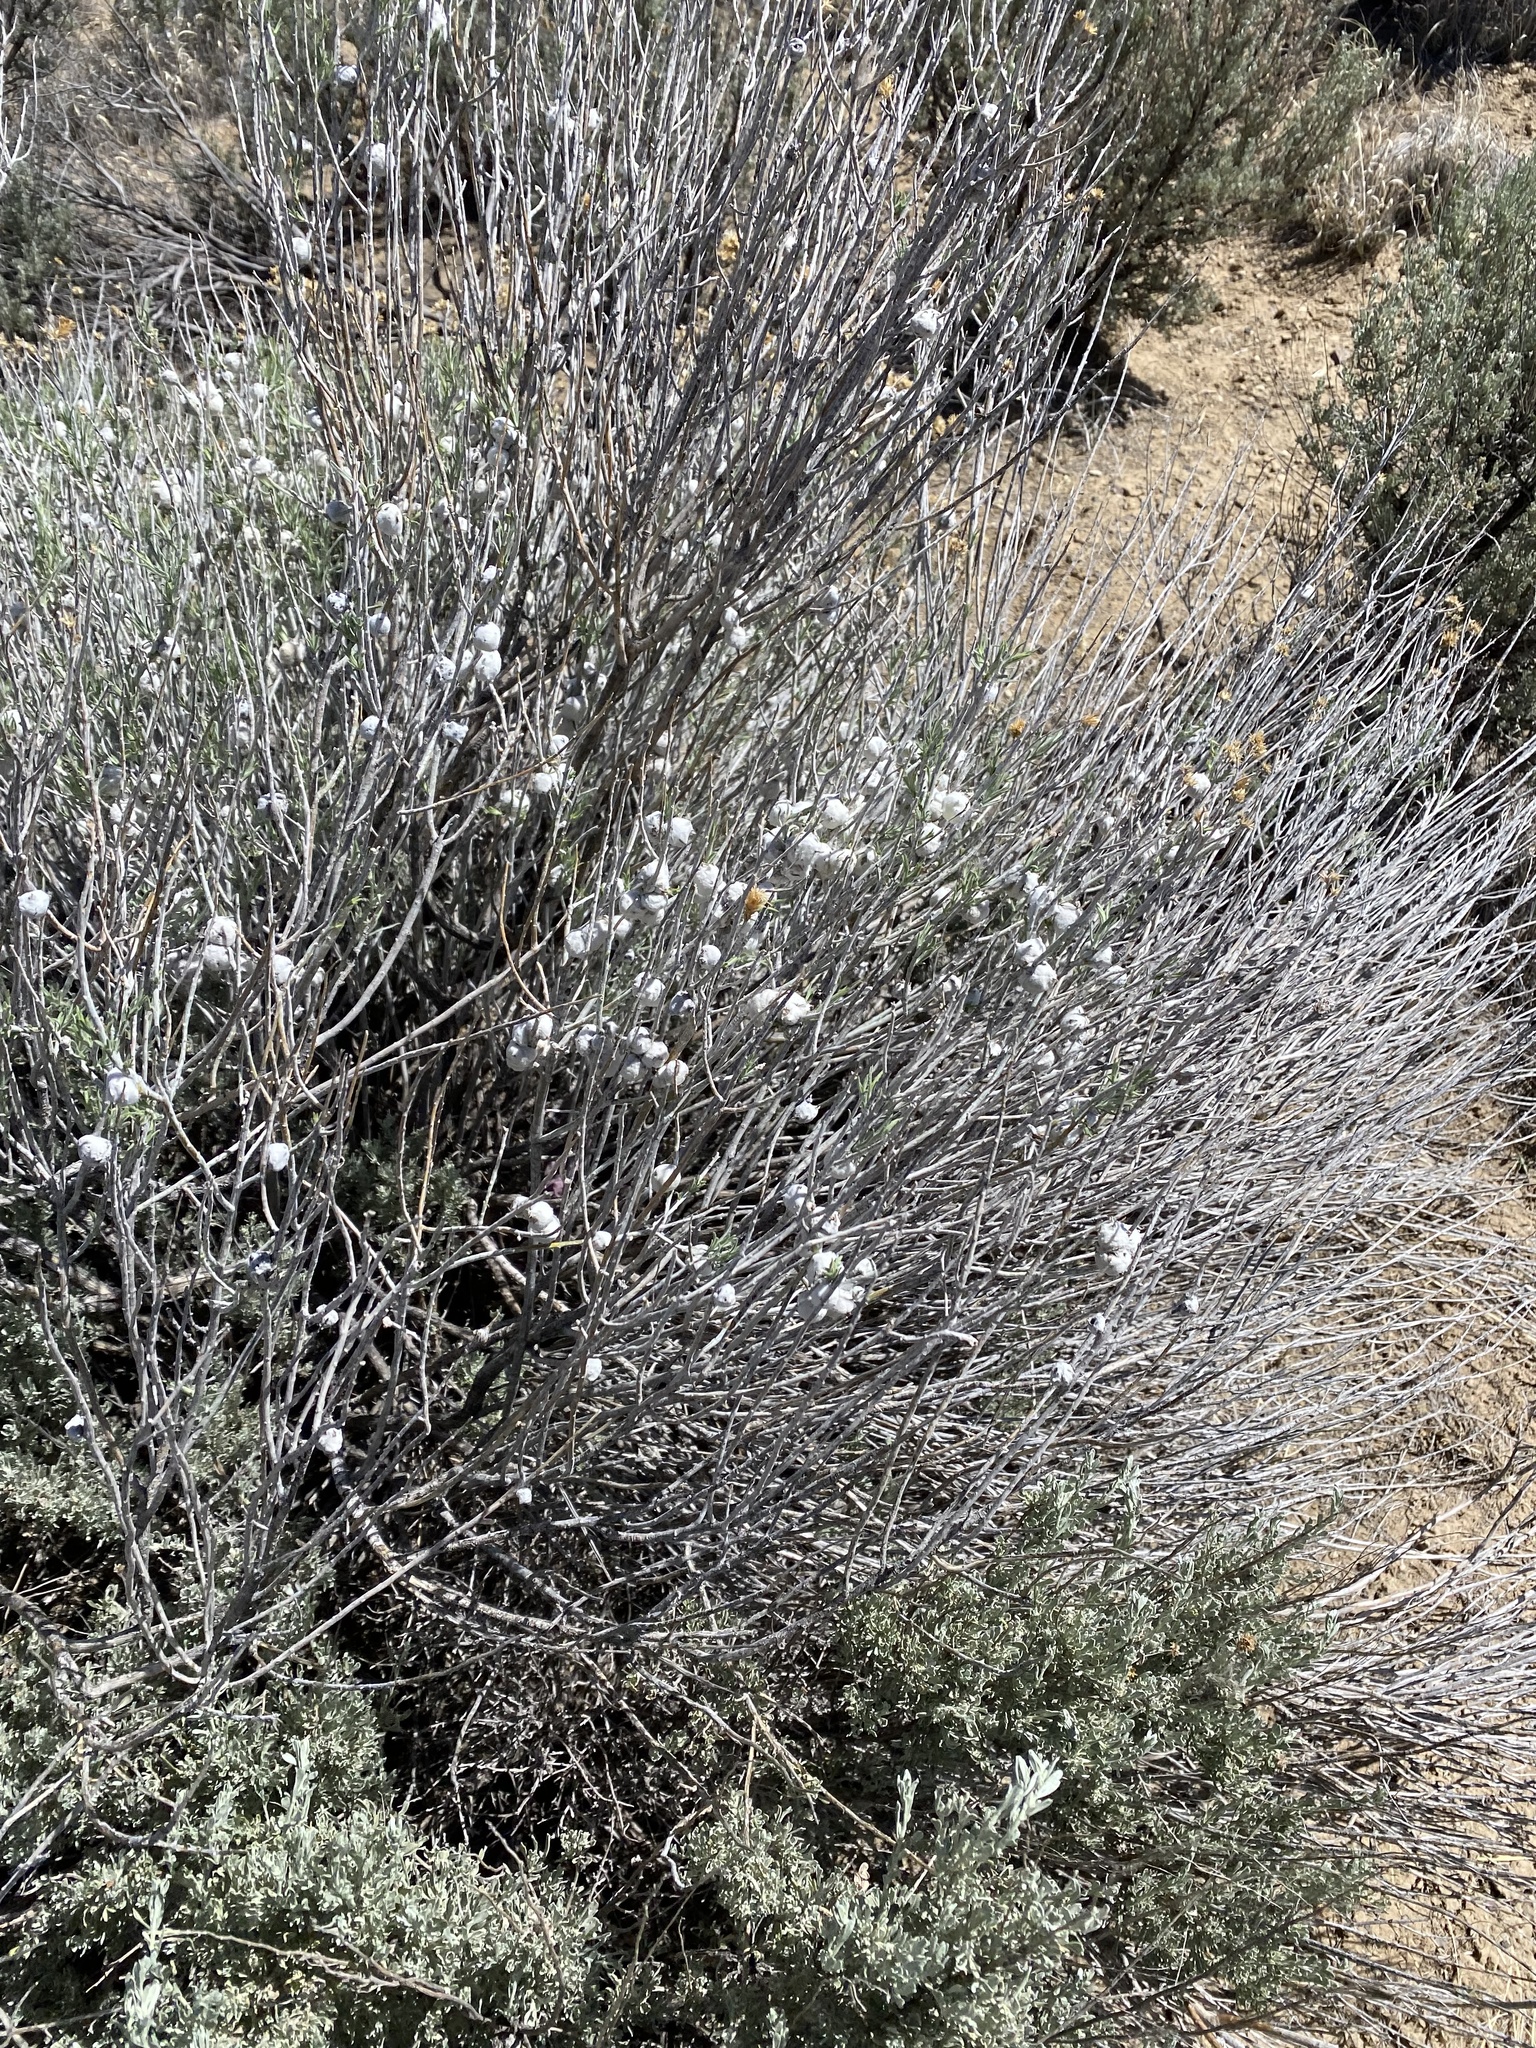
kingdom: Animalia
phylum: Arthropoda
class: Insecta
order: Diptera
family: Tephritidae
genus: Aciurina
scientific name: Aciurina bigeloviae
